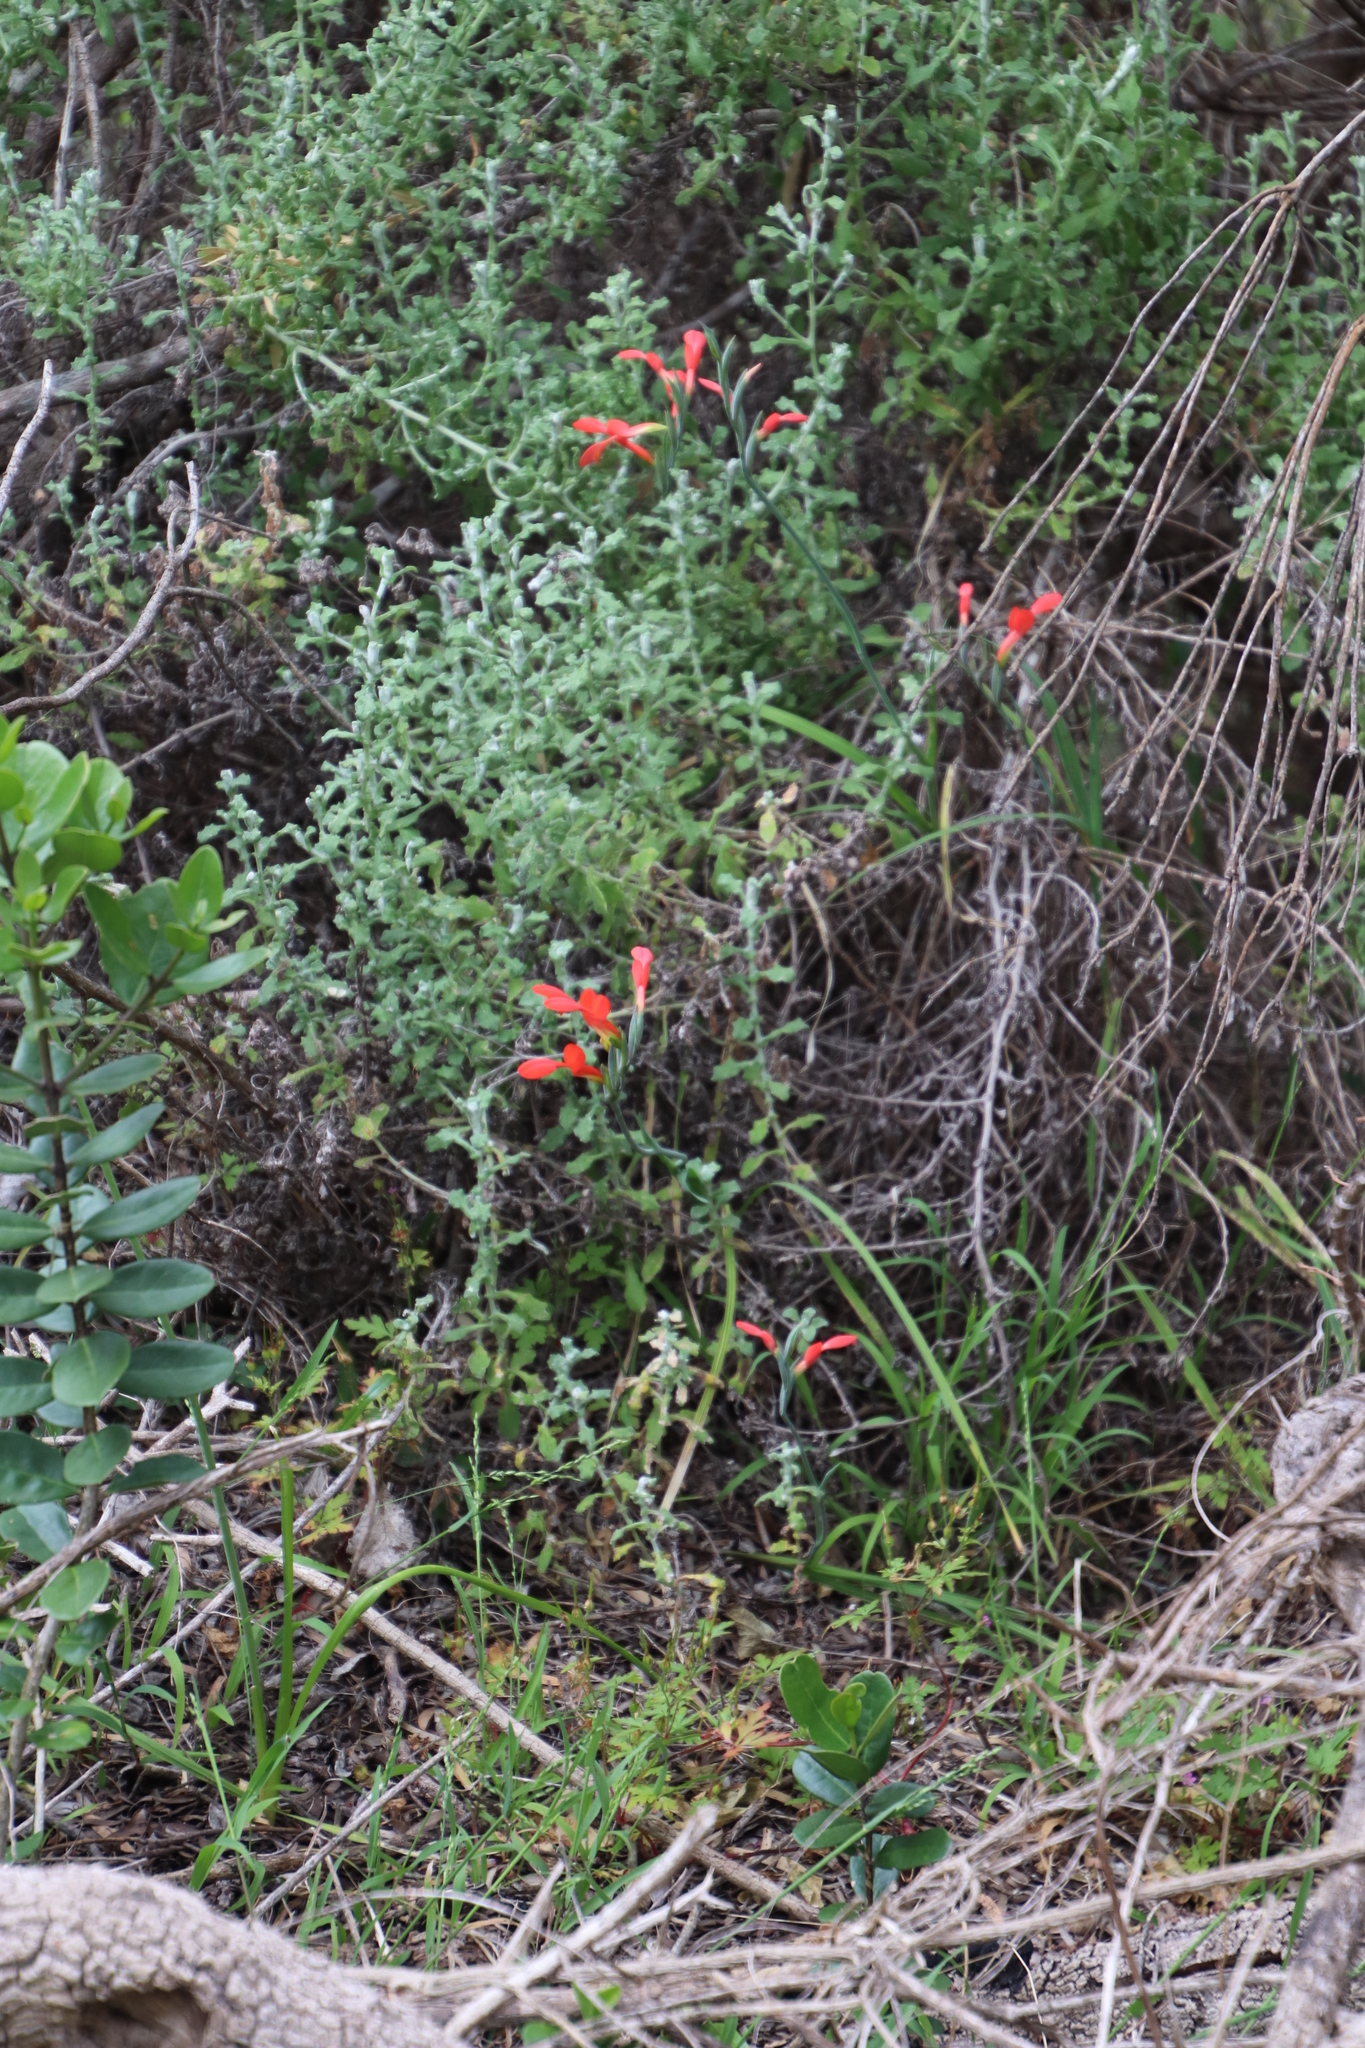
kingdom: Plantae
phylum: Tracheophyta
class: Liliopsida
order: Asparagales
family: Iridaceae
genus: Gladiolus
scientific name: Gladiolus cunonius
